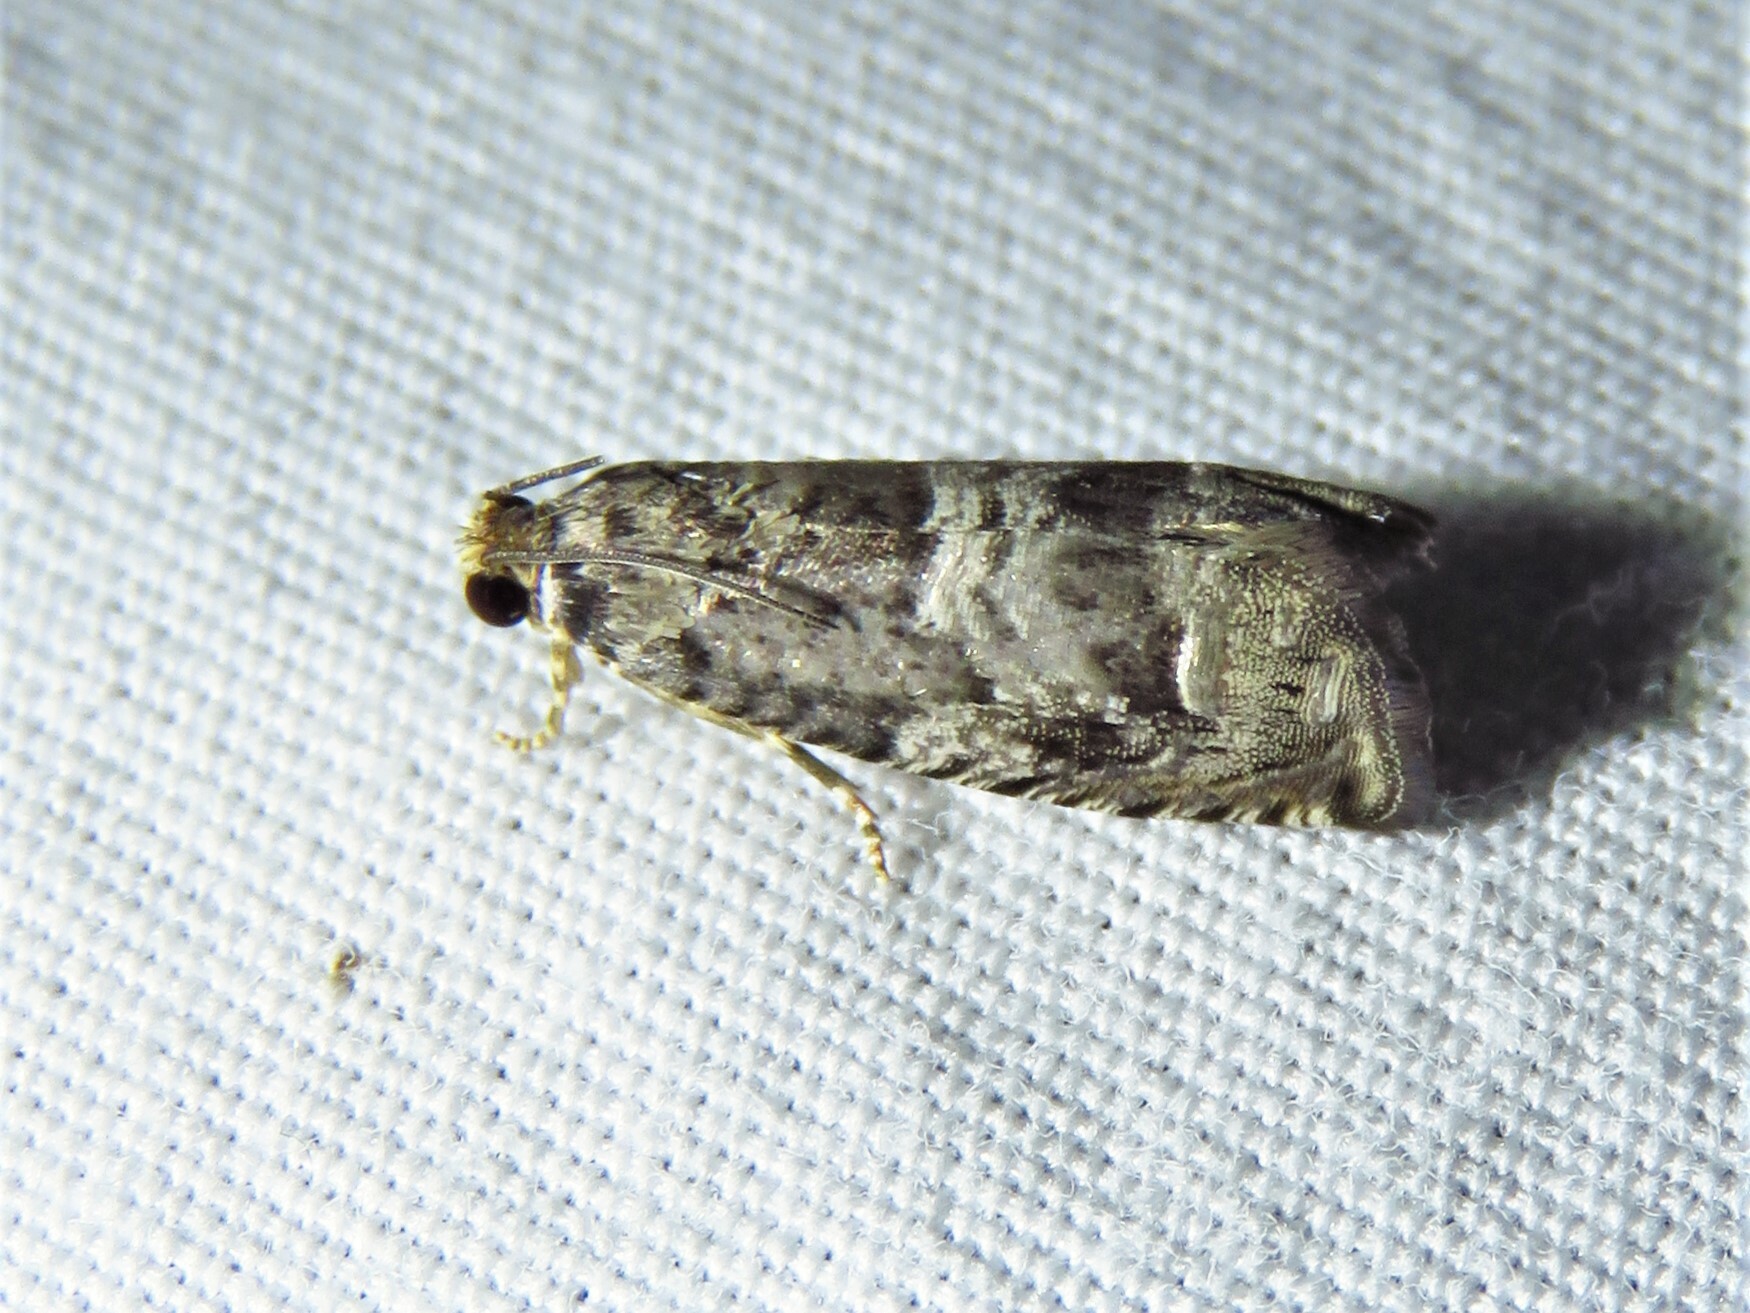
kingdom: Animalia
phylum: Arthropoda
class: Insecta
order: Lepidoptera
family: Tortricidae
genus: Cydia
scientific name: Cydia membrosa
